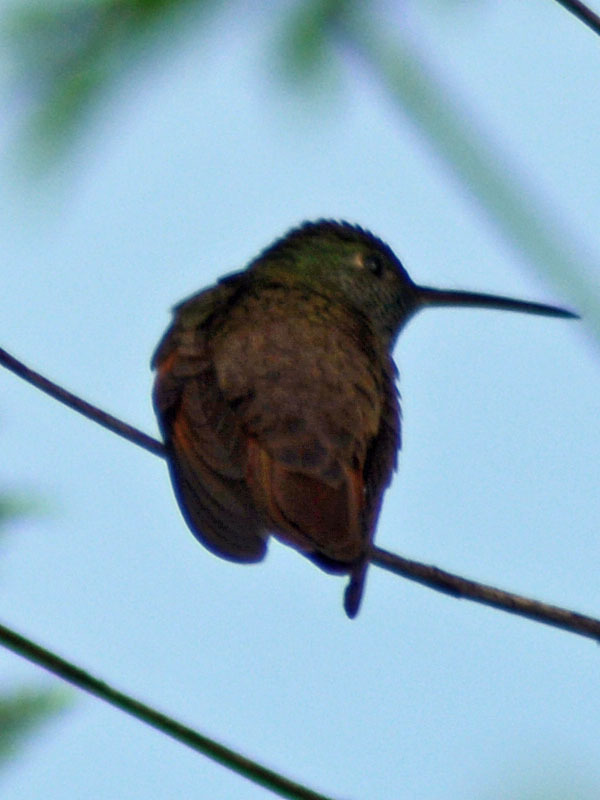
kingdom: Animalia
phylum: Chordata
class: Aves
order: Apodiformes
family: Trochilidae
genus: Saucerottia
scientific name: Saucerottia beryllina
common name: Berylline hummingbird
